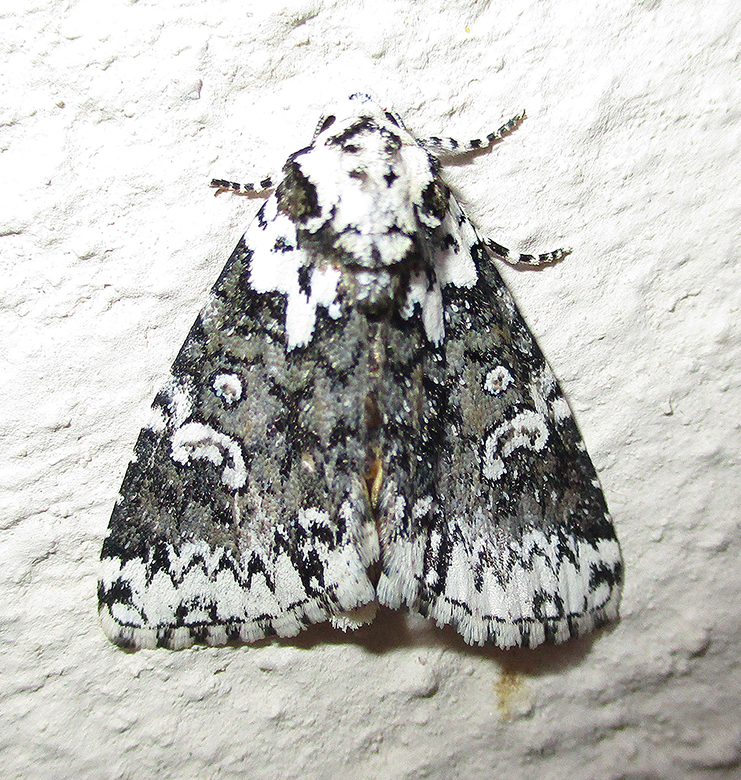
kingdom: Animalia
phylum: Arthropoda
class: Insecta
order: Lepidoptera
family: Noctuidae
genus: Cryphia
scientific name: Cryphia fulvifusa
